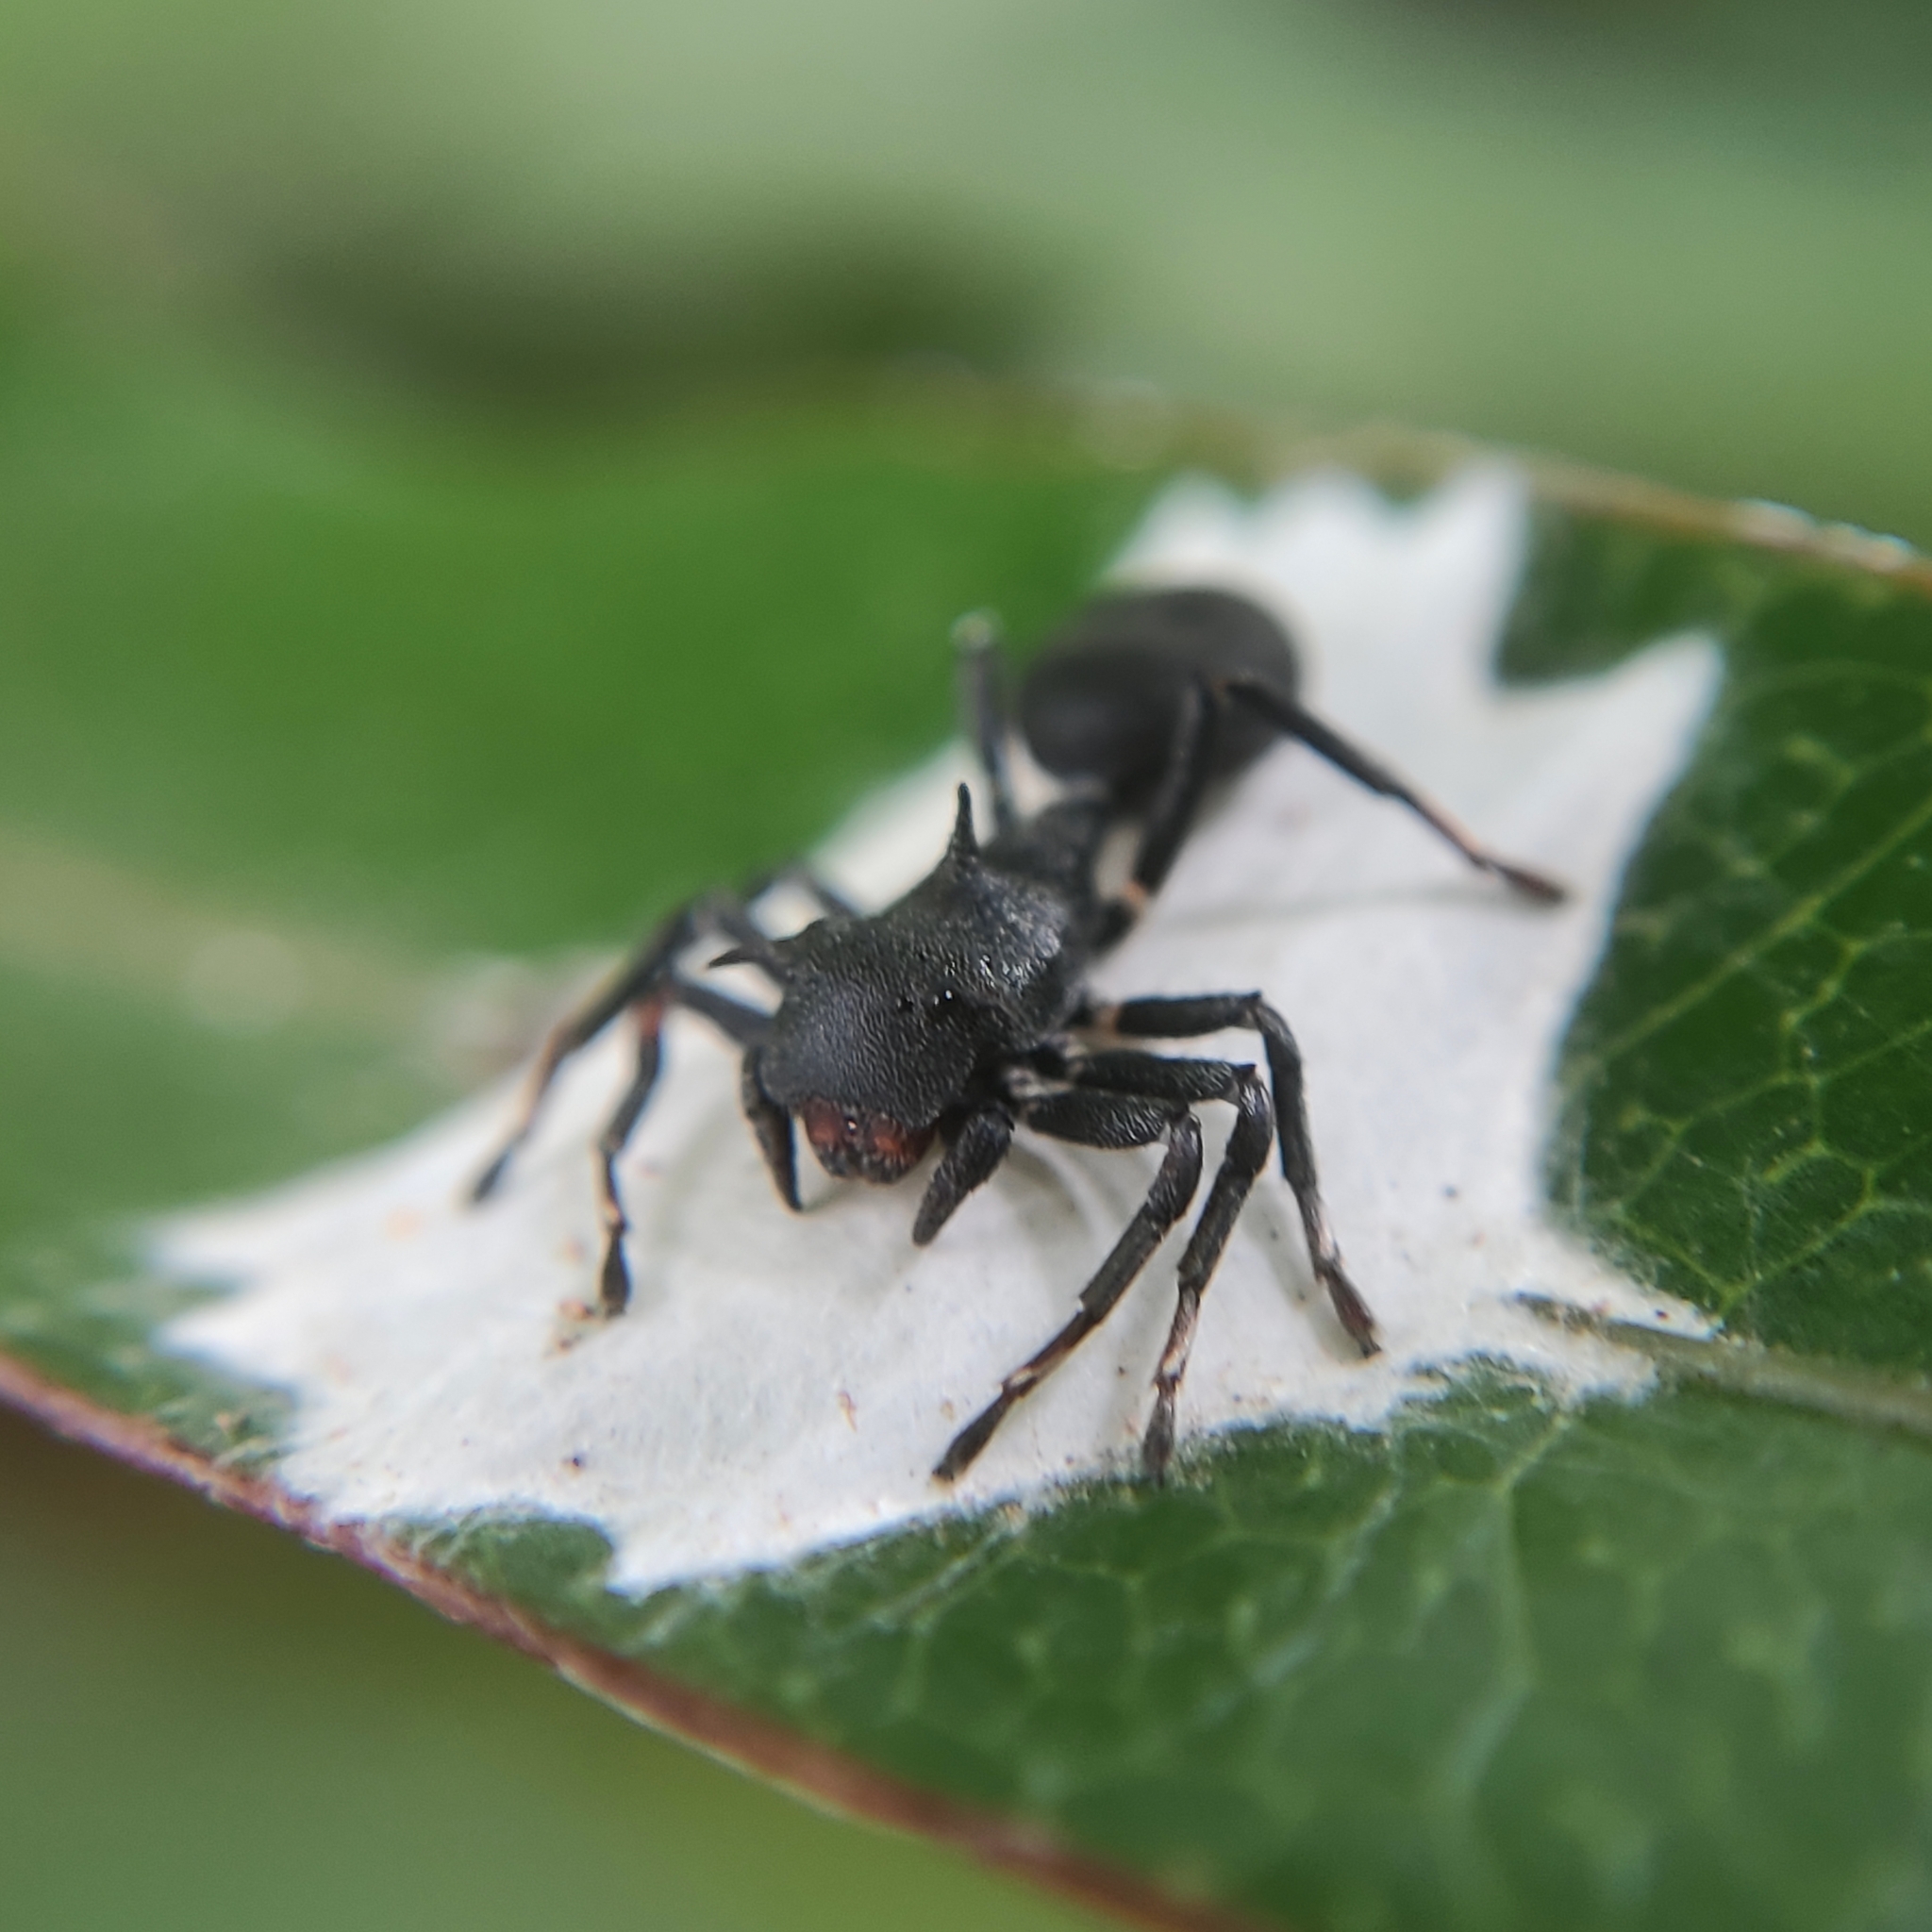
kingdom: Animalia
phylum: Arthropoda
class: Arachnida
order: Araneae
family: Thomisidae
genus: Aphantochilus
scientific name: Aphantochilus rogersi
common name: Crab spiders
